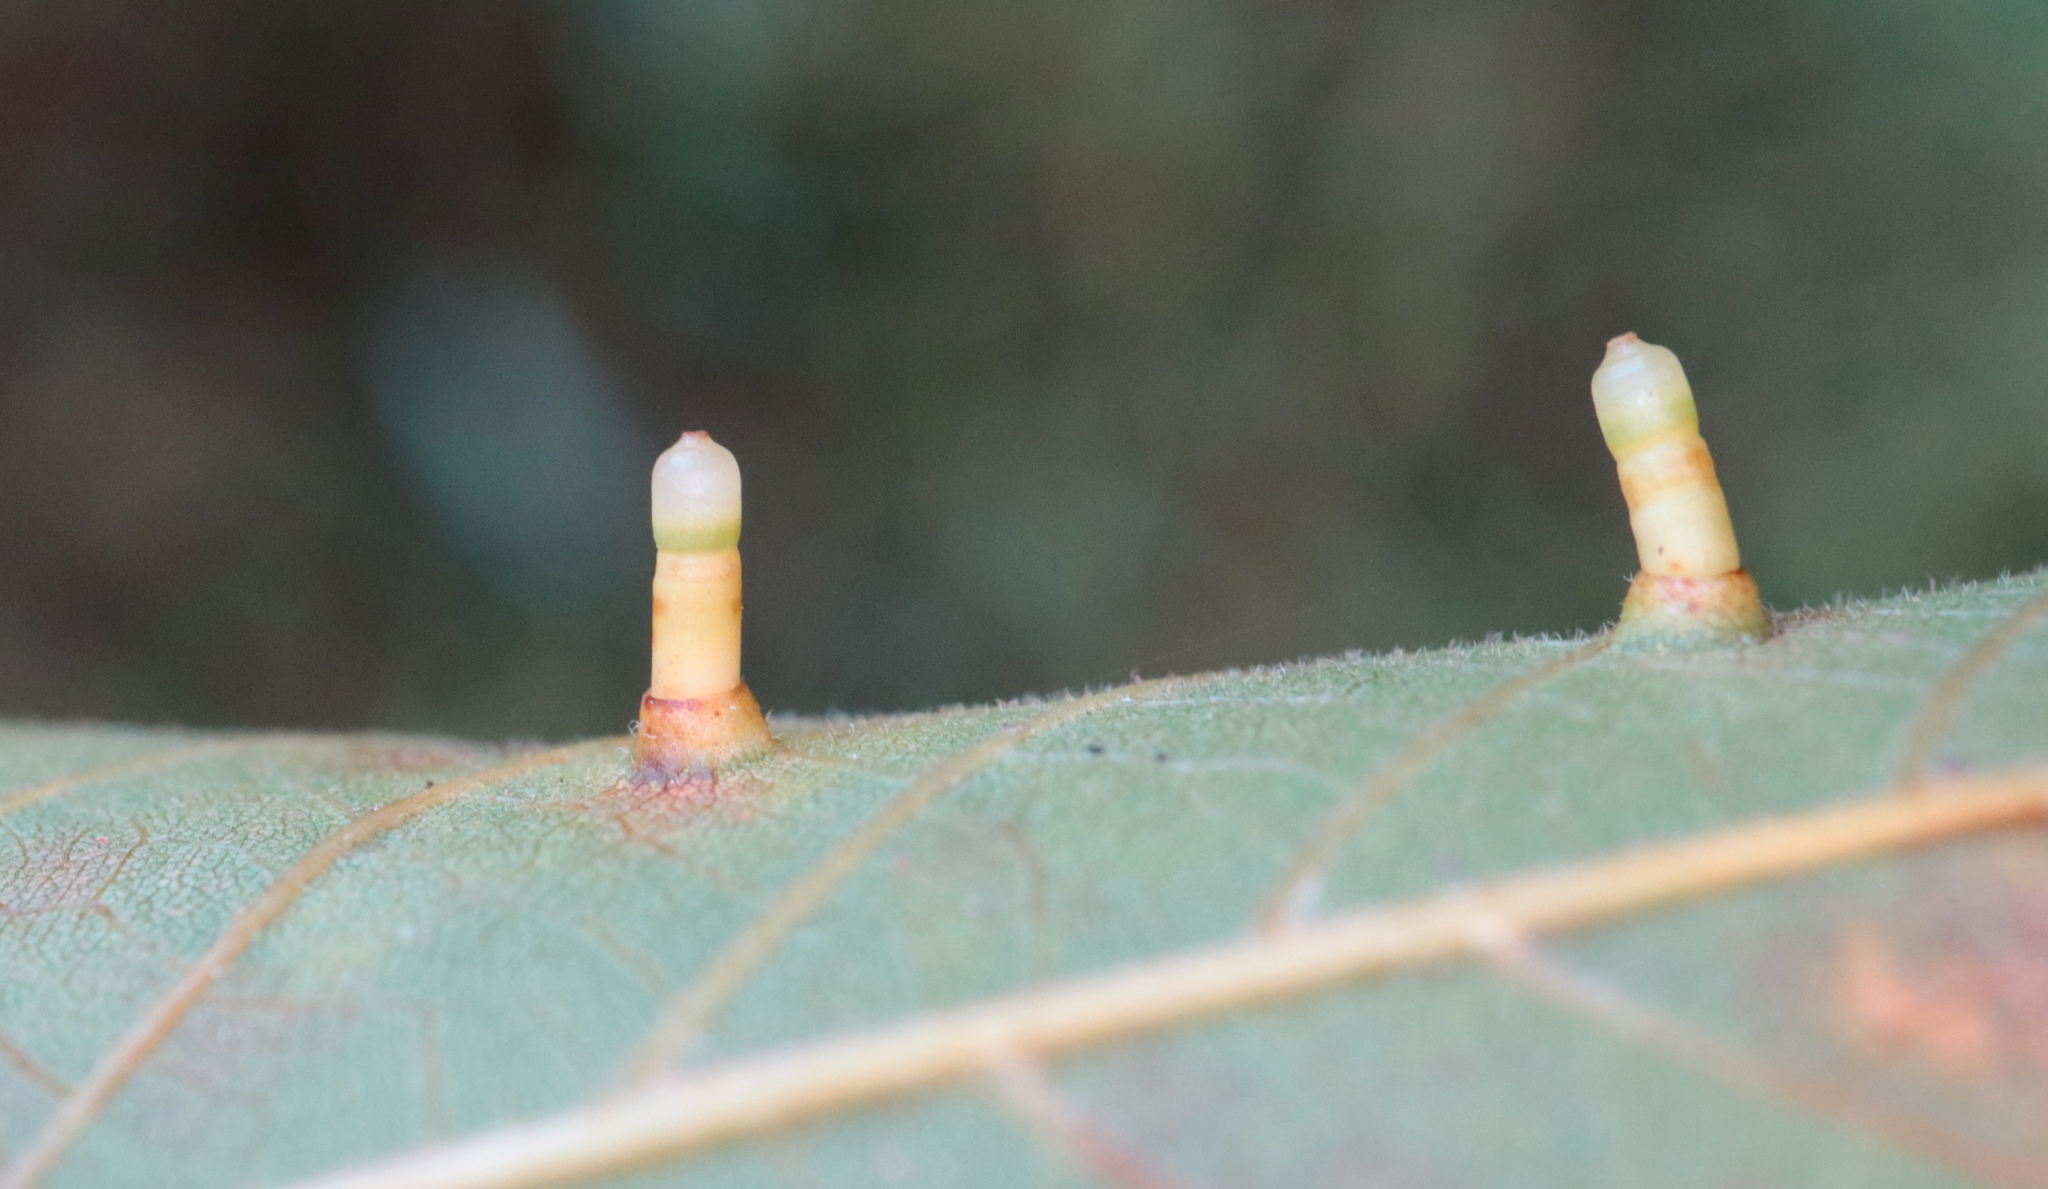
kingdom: Animalia
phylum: Arthropoda
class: Insecta
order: Diptera
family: Cecidomyiidae
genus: Caryomyia
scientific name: Caryomyia tubicola
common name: Hickory bullet gall midge
